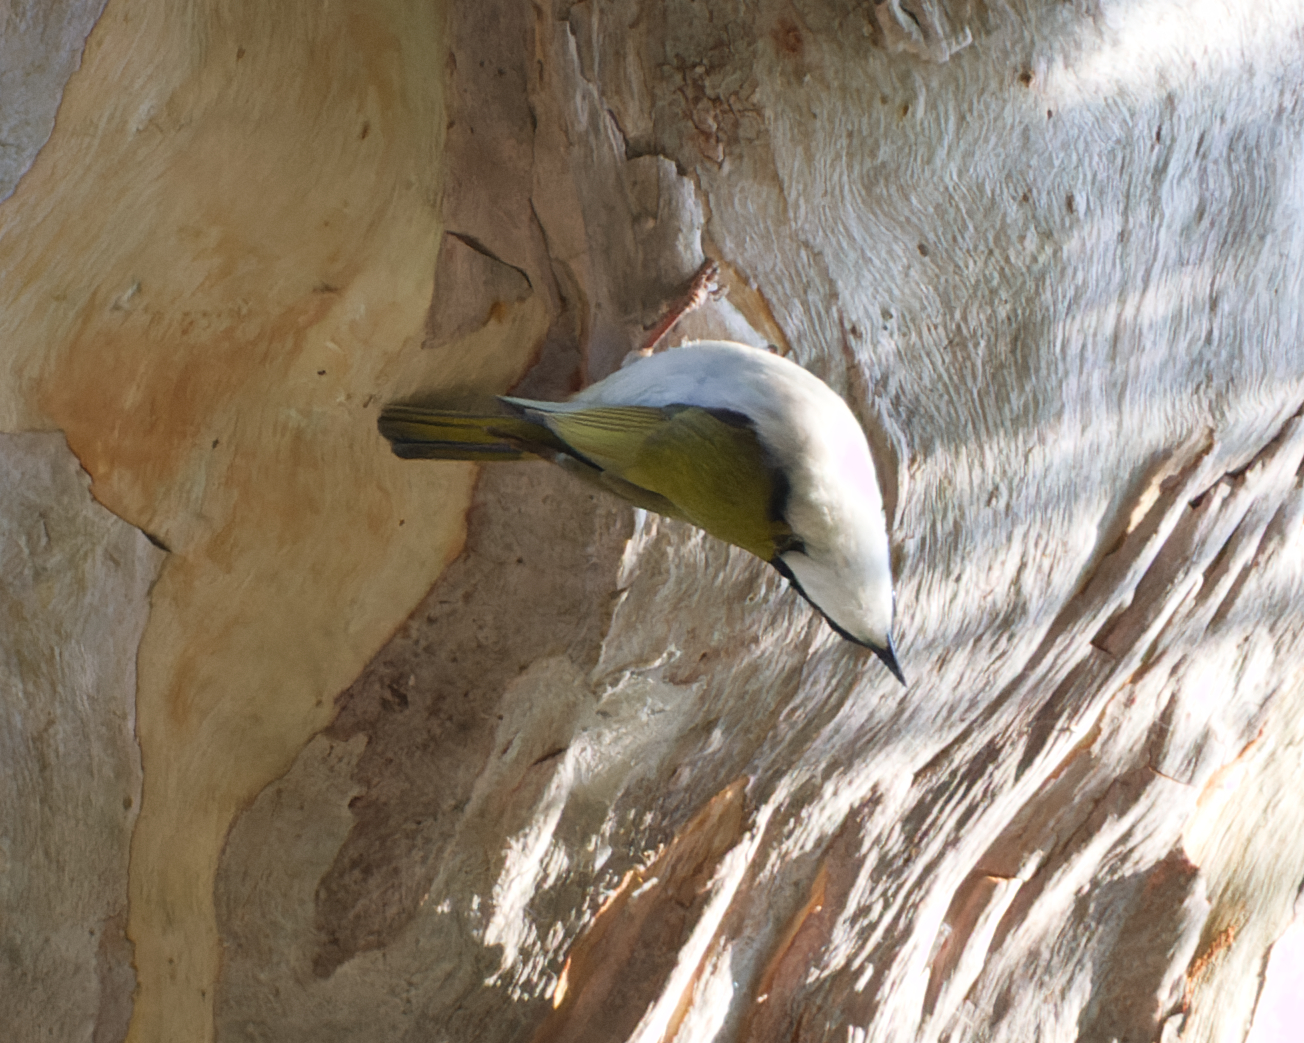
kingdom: Animalia
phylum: Chordata
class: Aves
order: Passeriformes
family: Meliphagidae
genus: Melithreptus
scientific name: Melithreptus albogularis
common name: White-throated honeyeater
